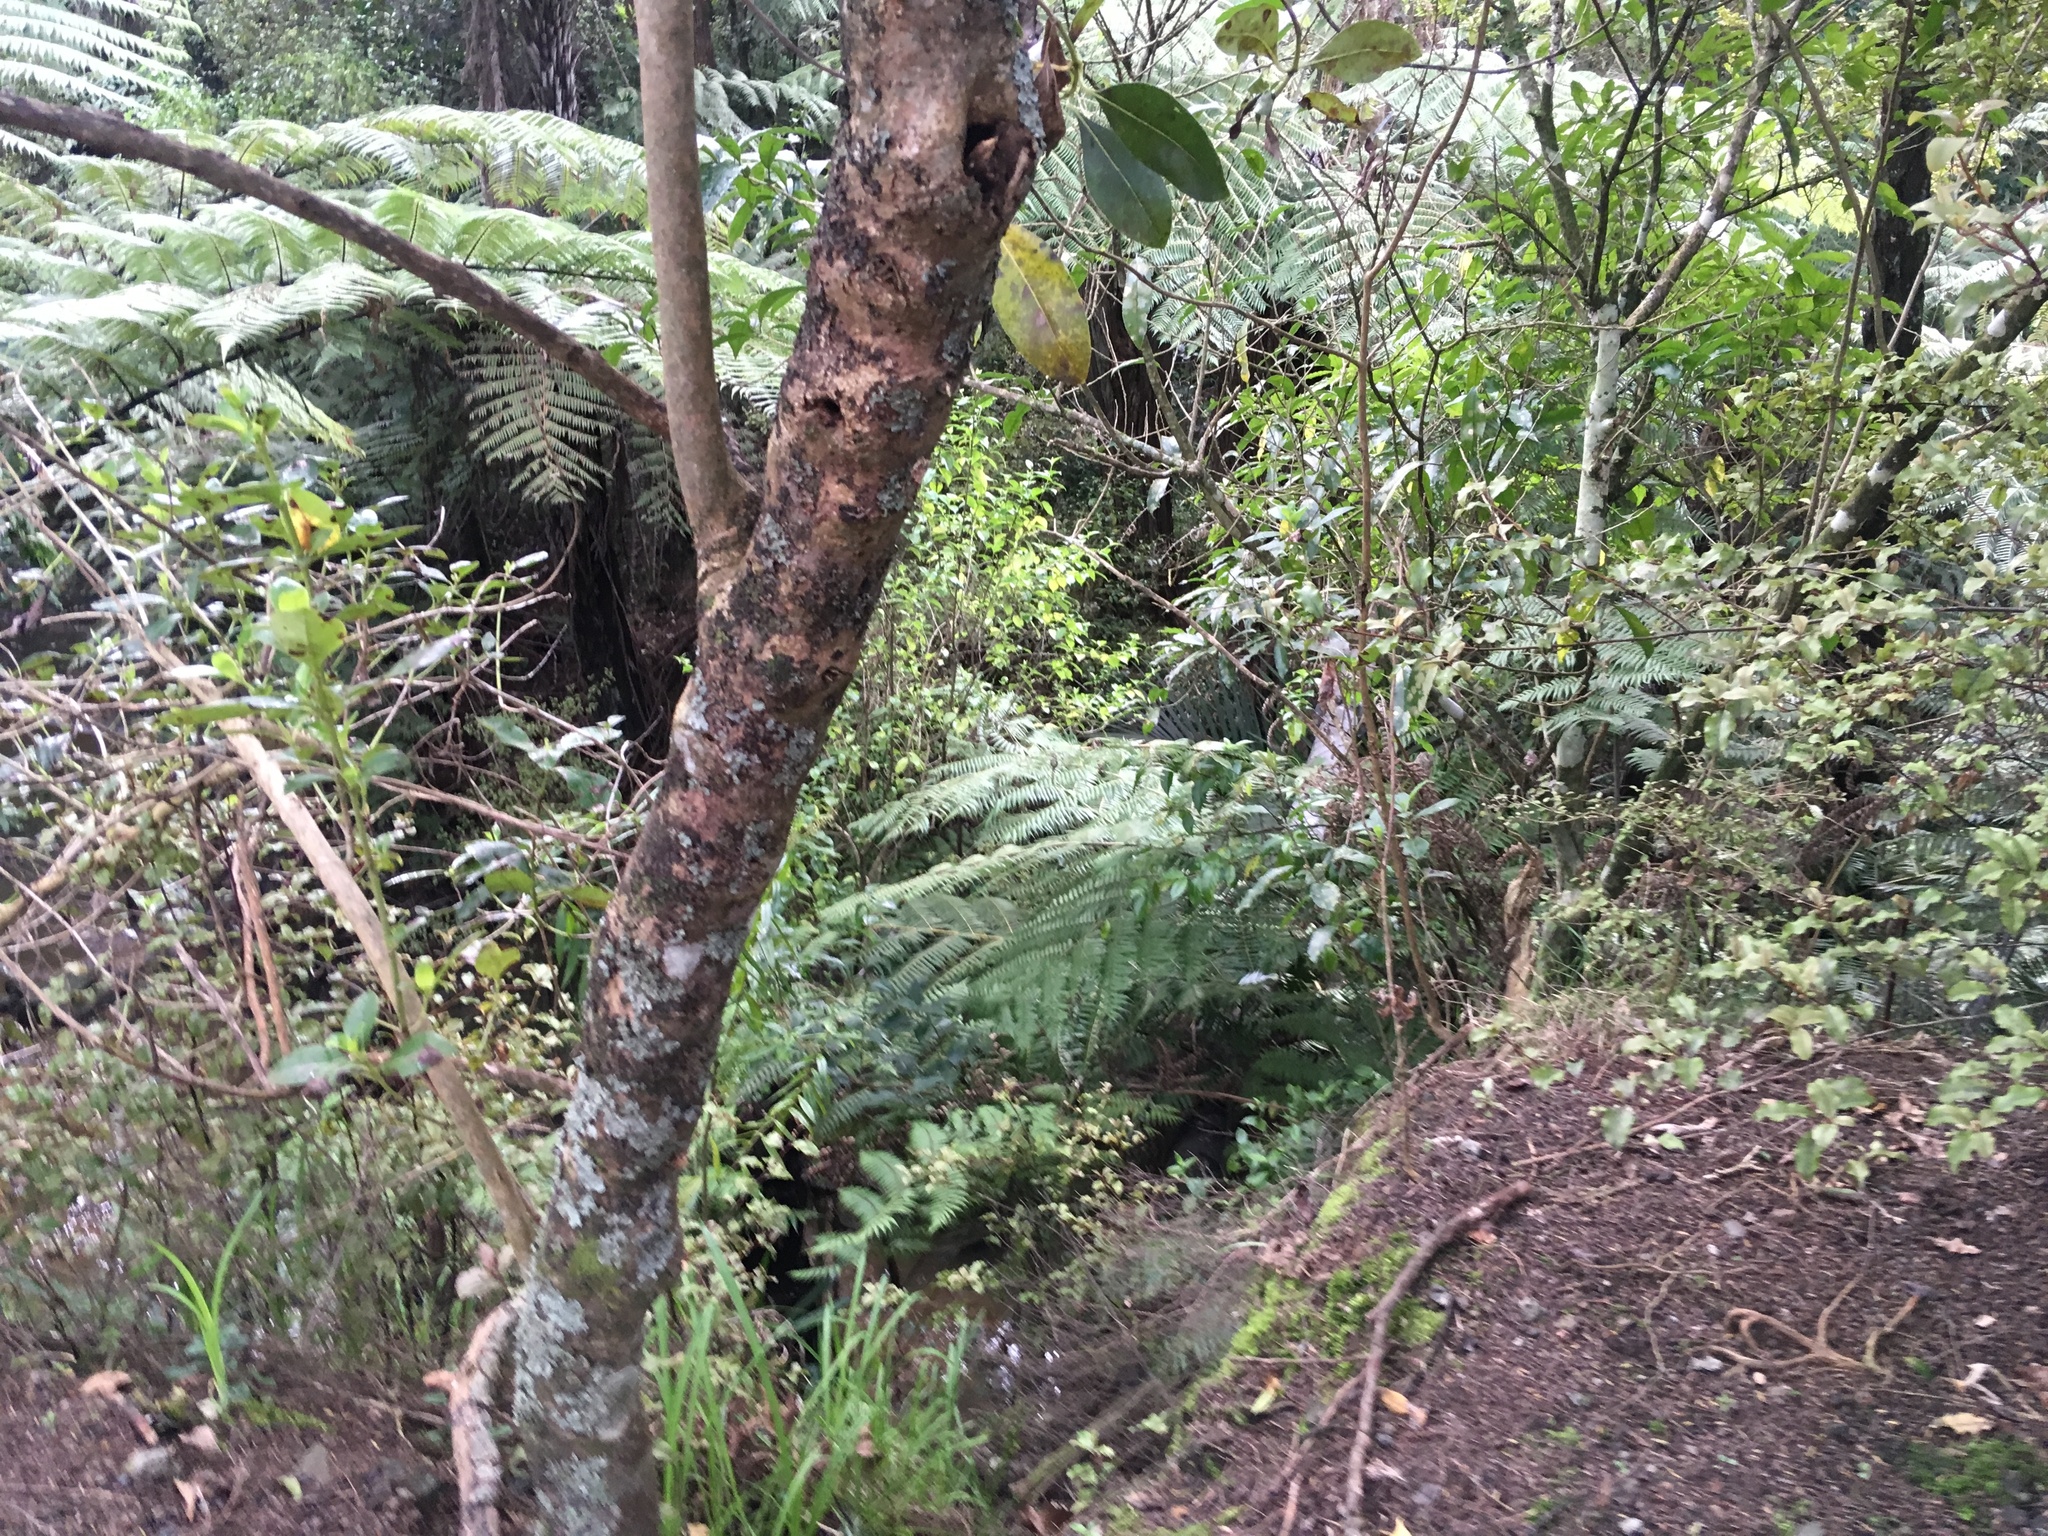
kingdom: Plantae
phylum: Tracheophyta
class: Magnoliopsida
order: Ericales
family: Primulaceae
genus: Myrsine
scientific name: Myrsine australis
